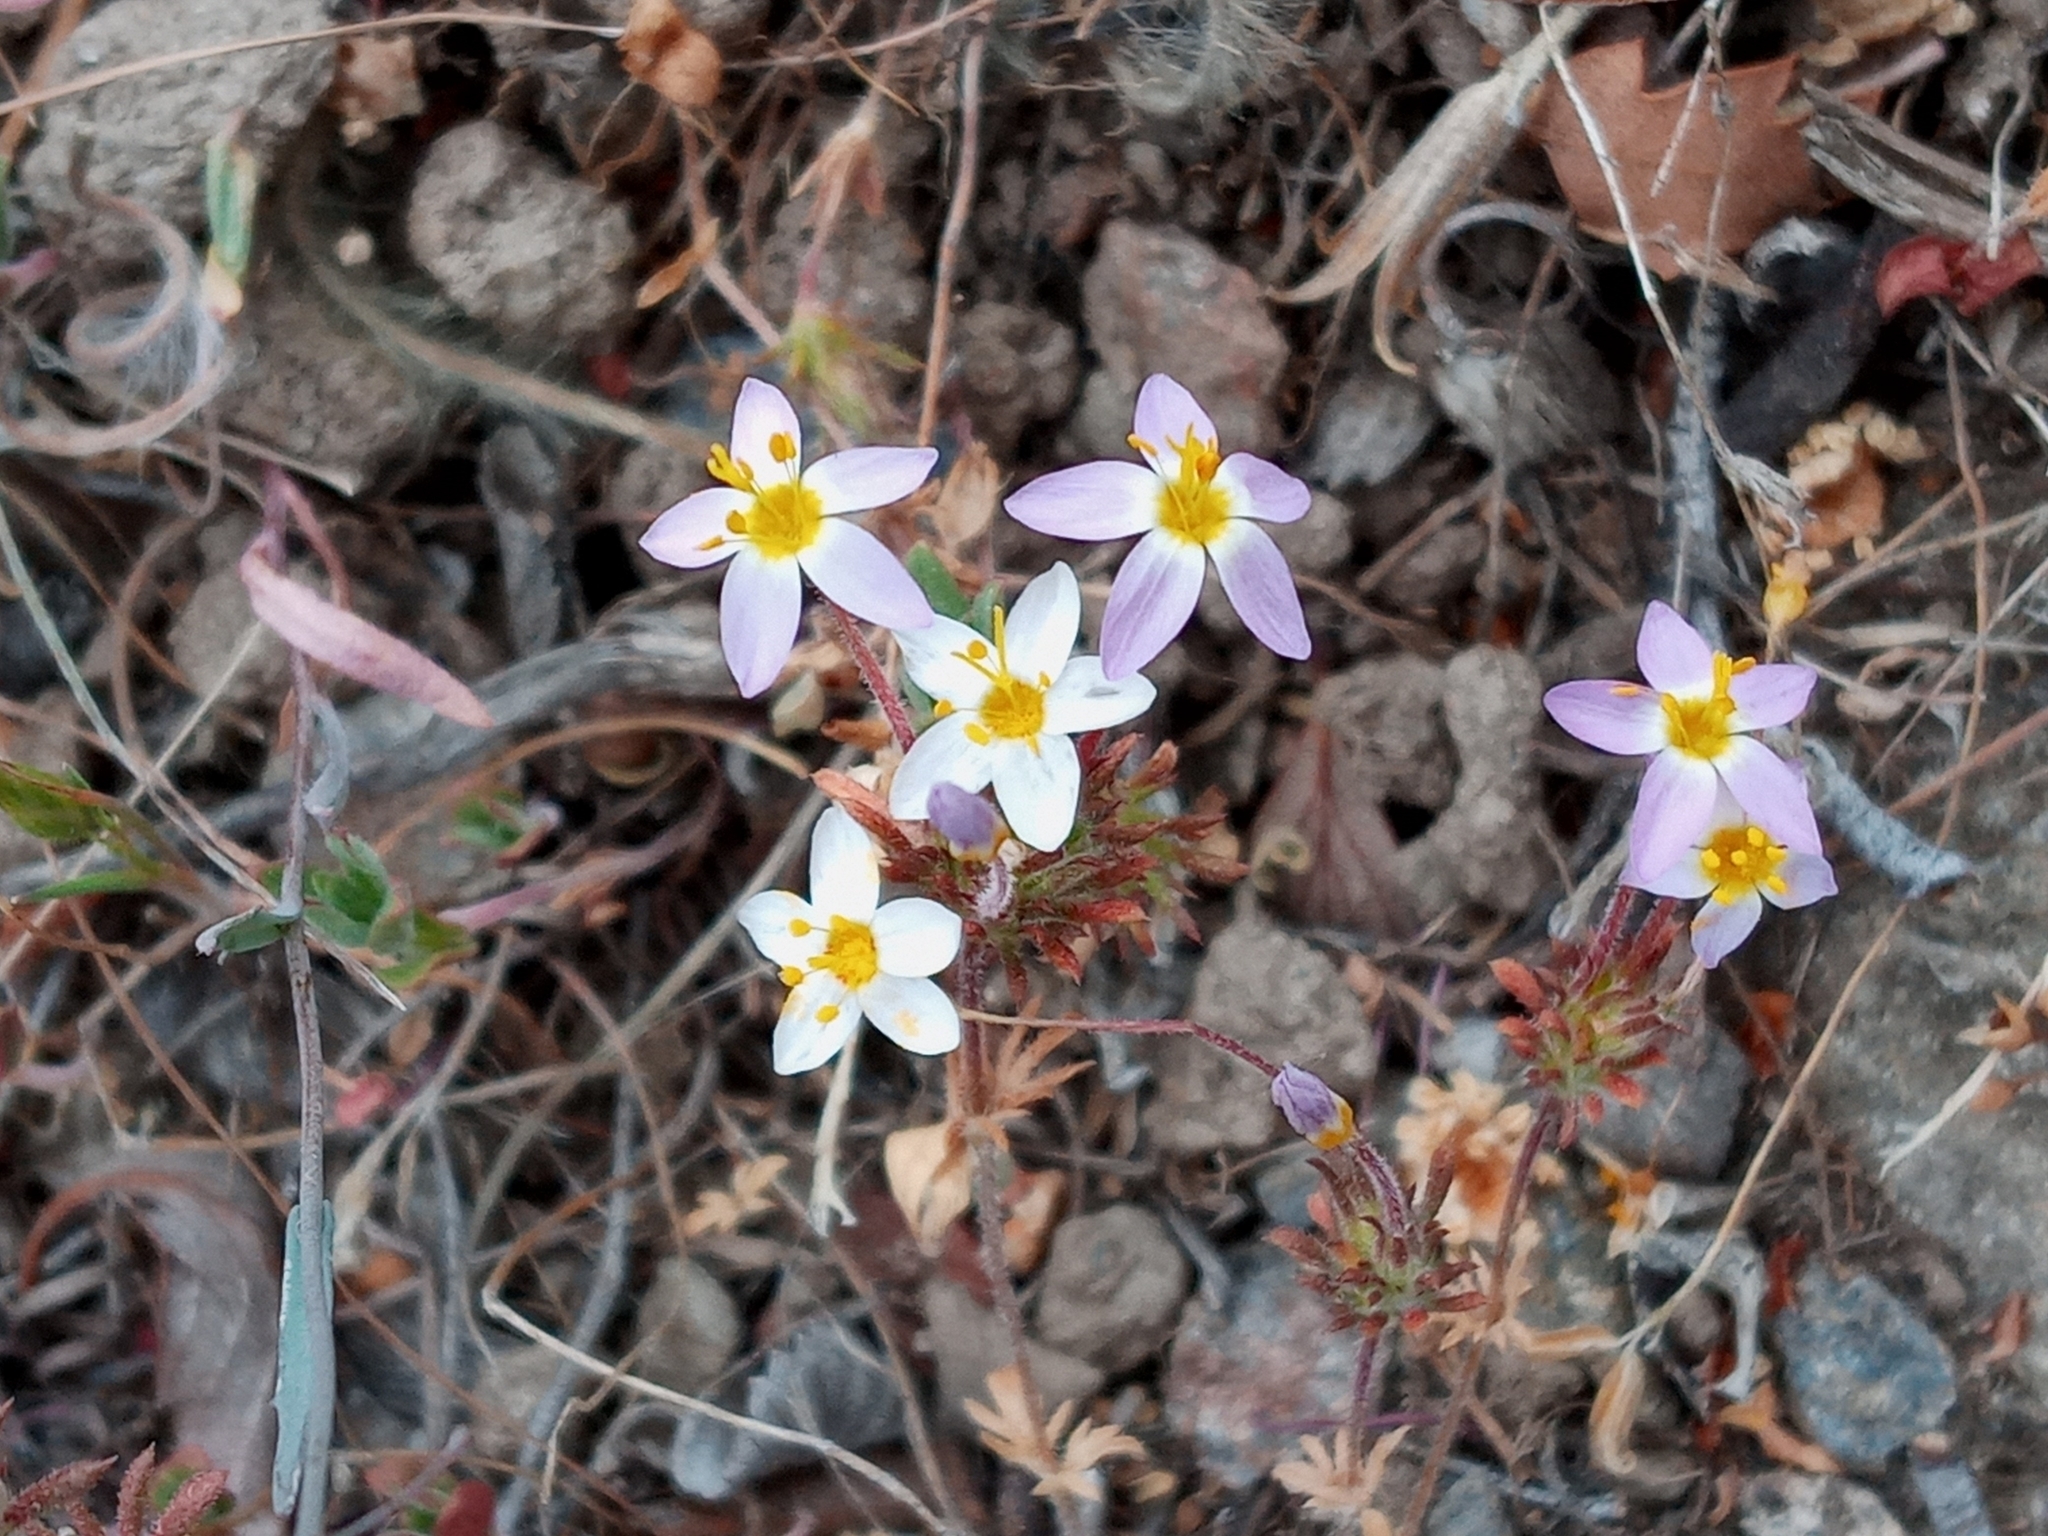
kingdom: Plantae
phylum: Tracheophyta
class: Magnoliopsida
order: Ericales
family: Polemoniaceae
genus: Leptosiphon
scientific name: Leptosiphon parviflorus
